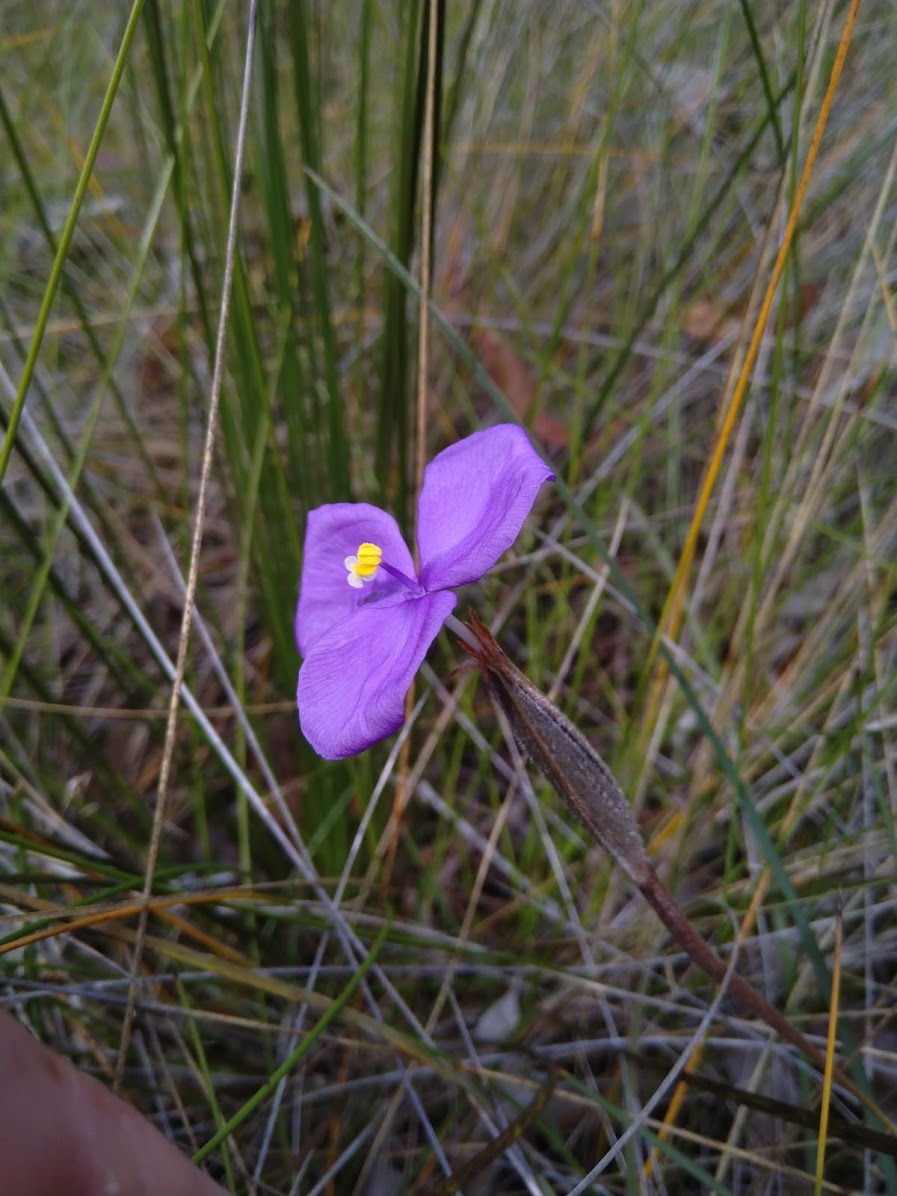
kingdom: Plantae
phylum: Tracheophyta
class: Liliopsida
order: Asparagales
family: Iridaceae
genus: Patersonia
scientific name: Patersonia sericea
